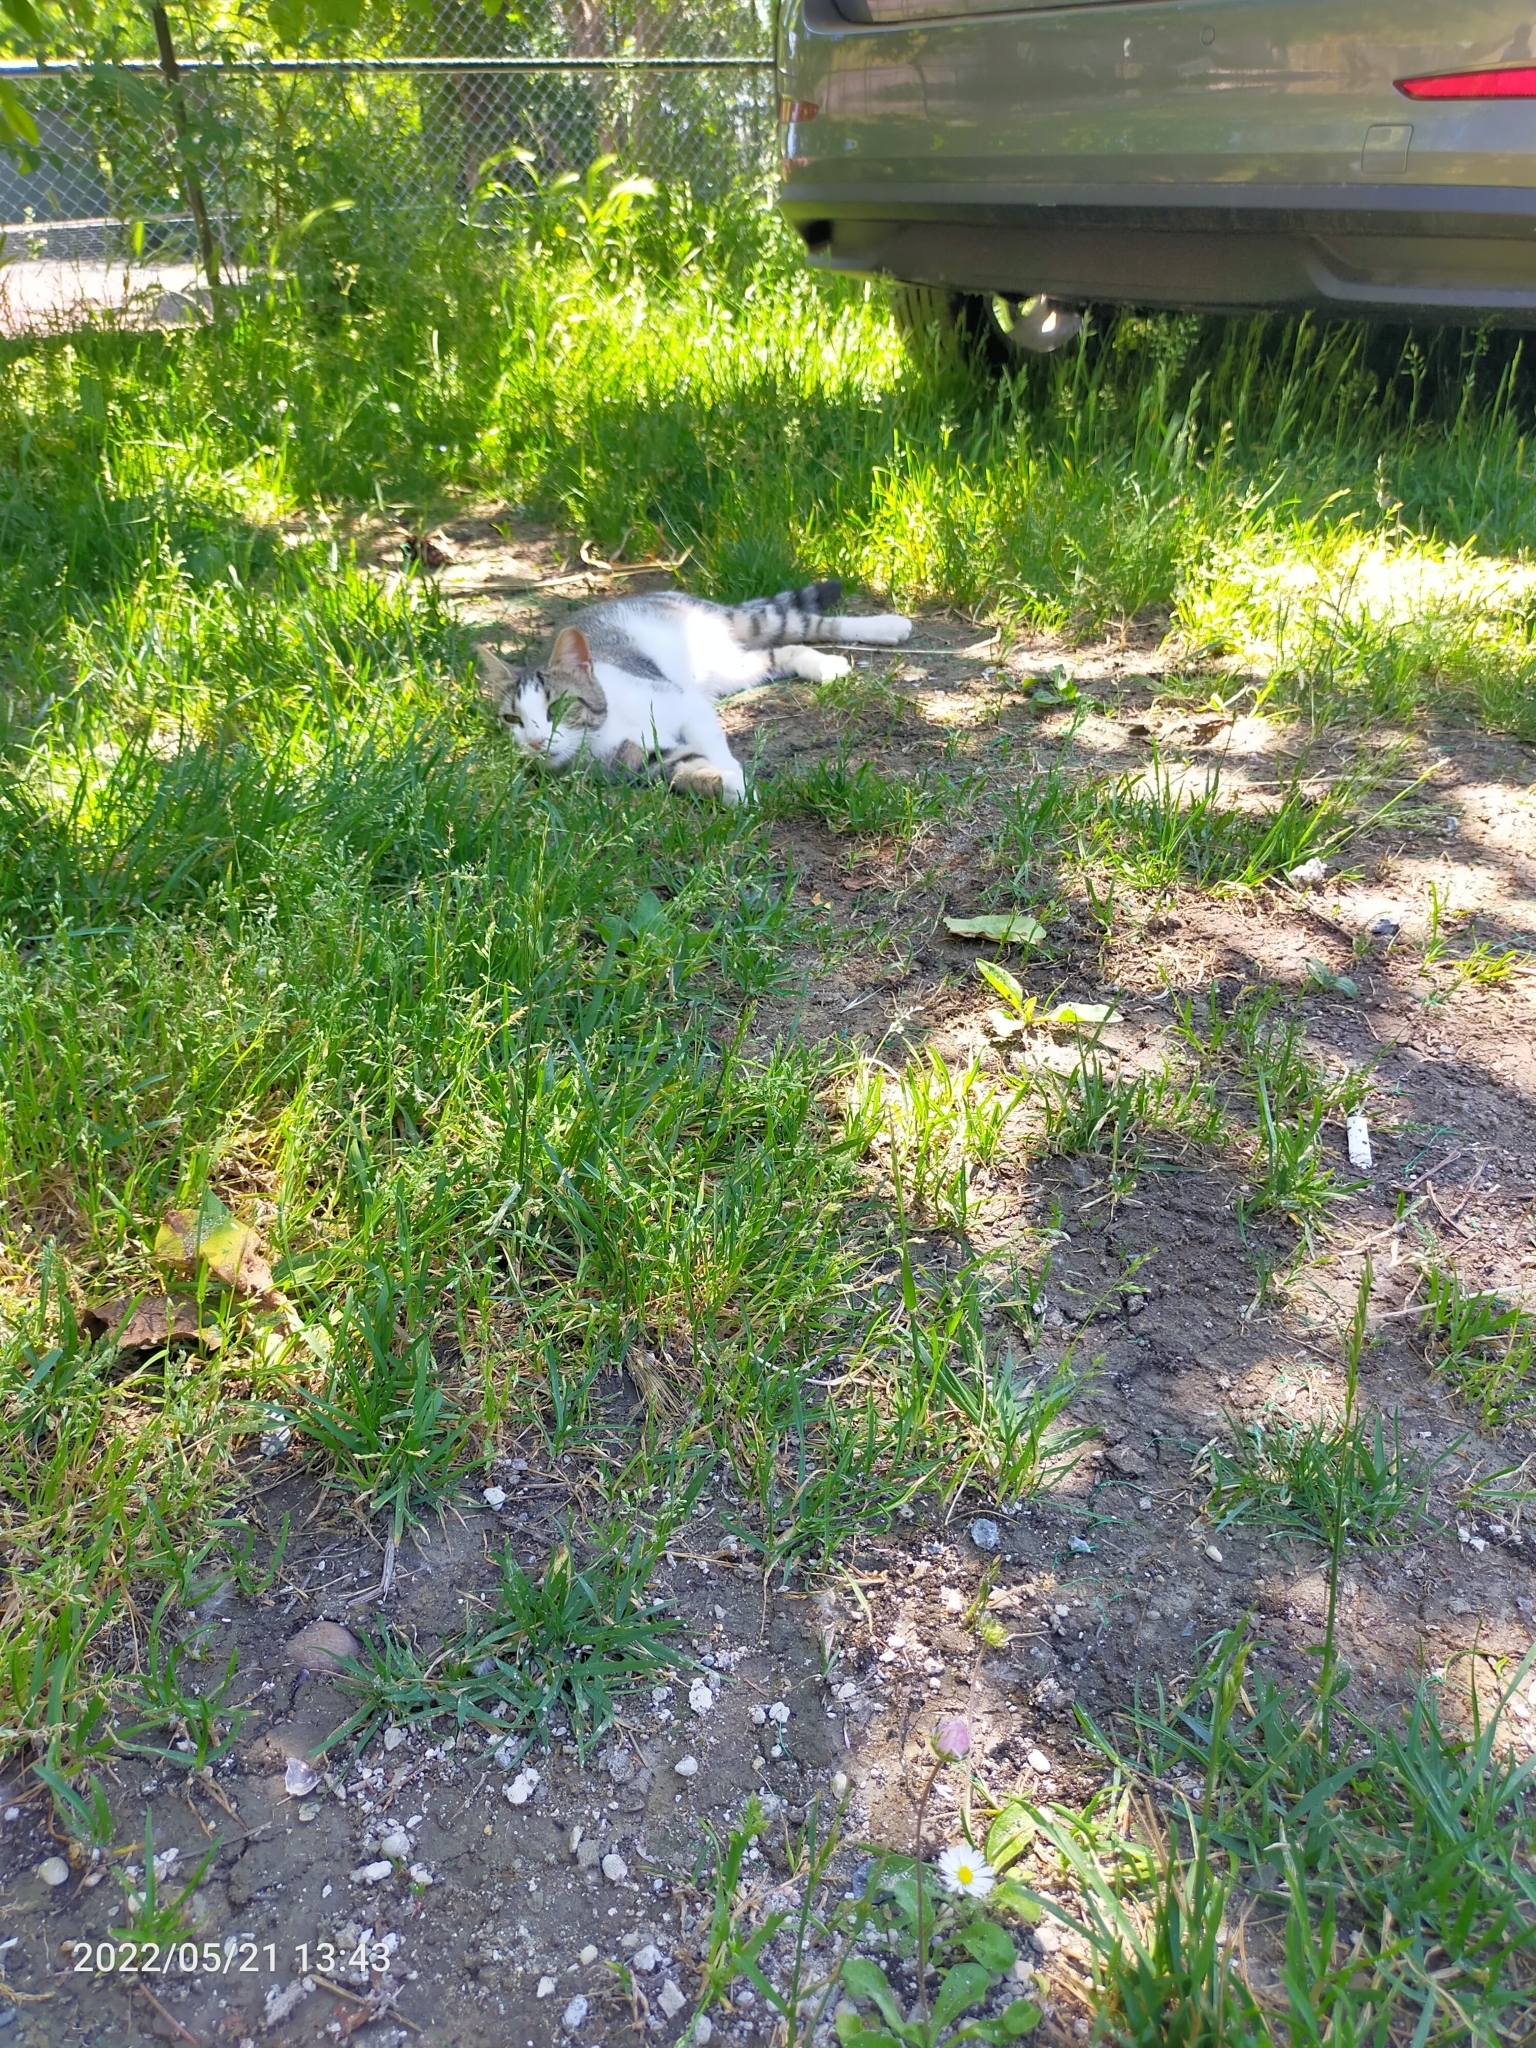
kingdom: Animalia
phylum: Chordata
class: Mammalia
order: Carnivora
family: Felidae
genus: Felis
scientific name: Felis catus
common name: Domestic cat
